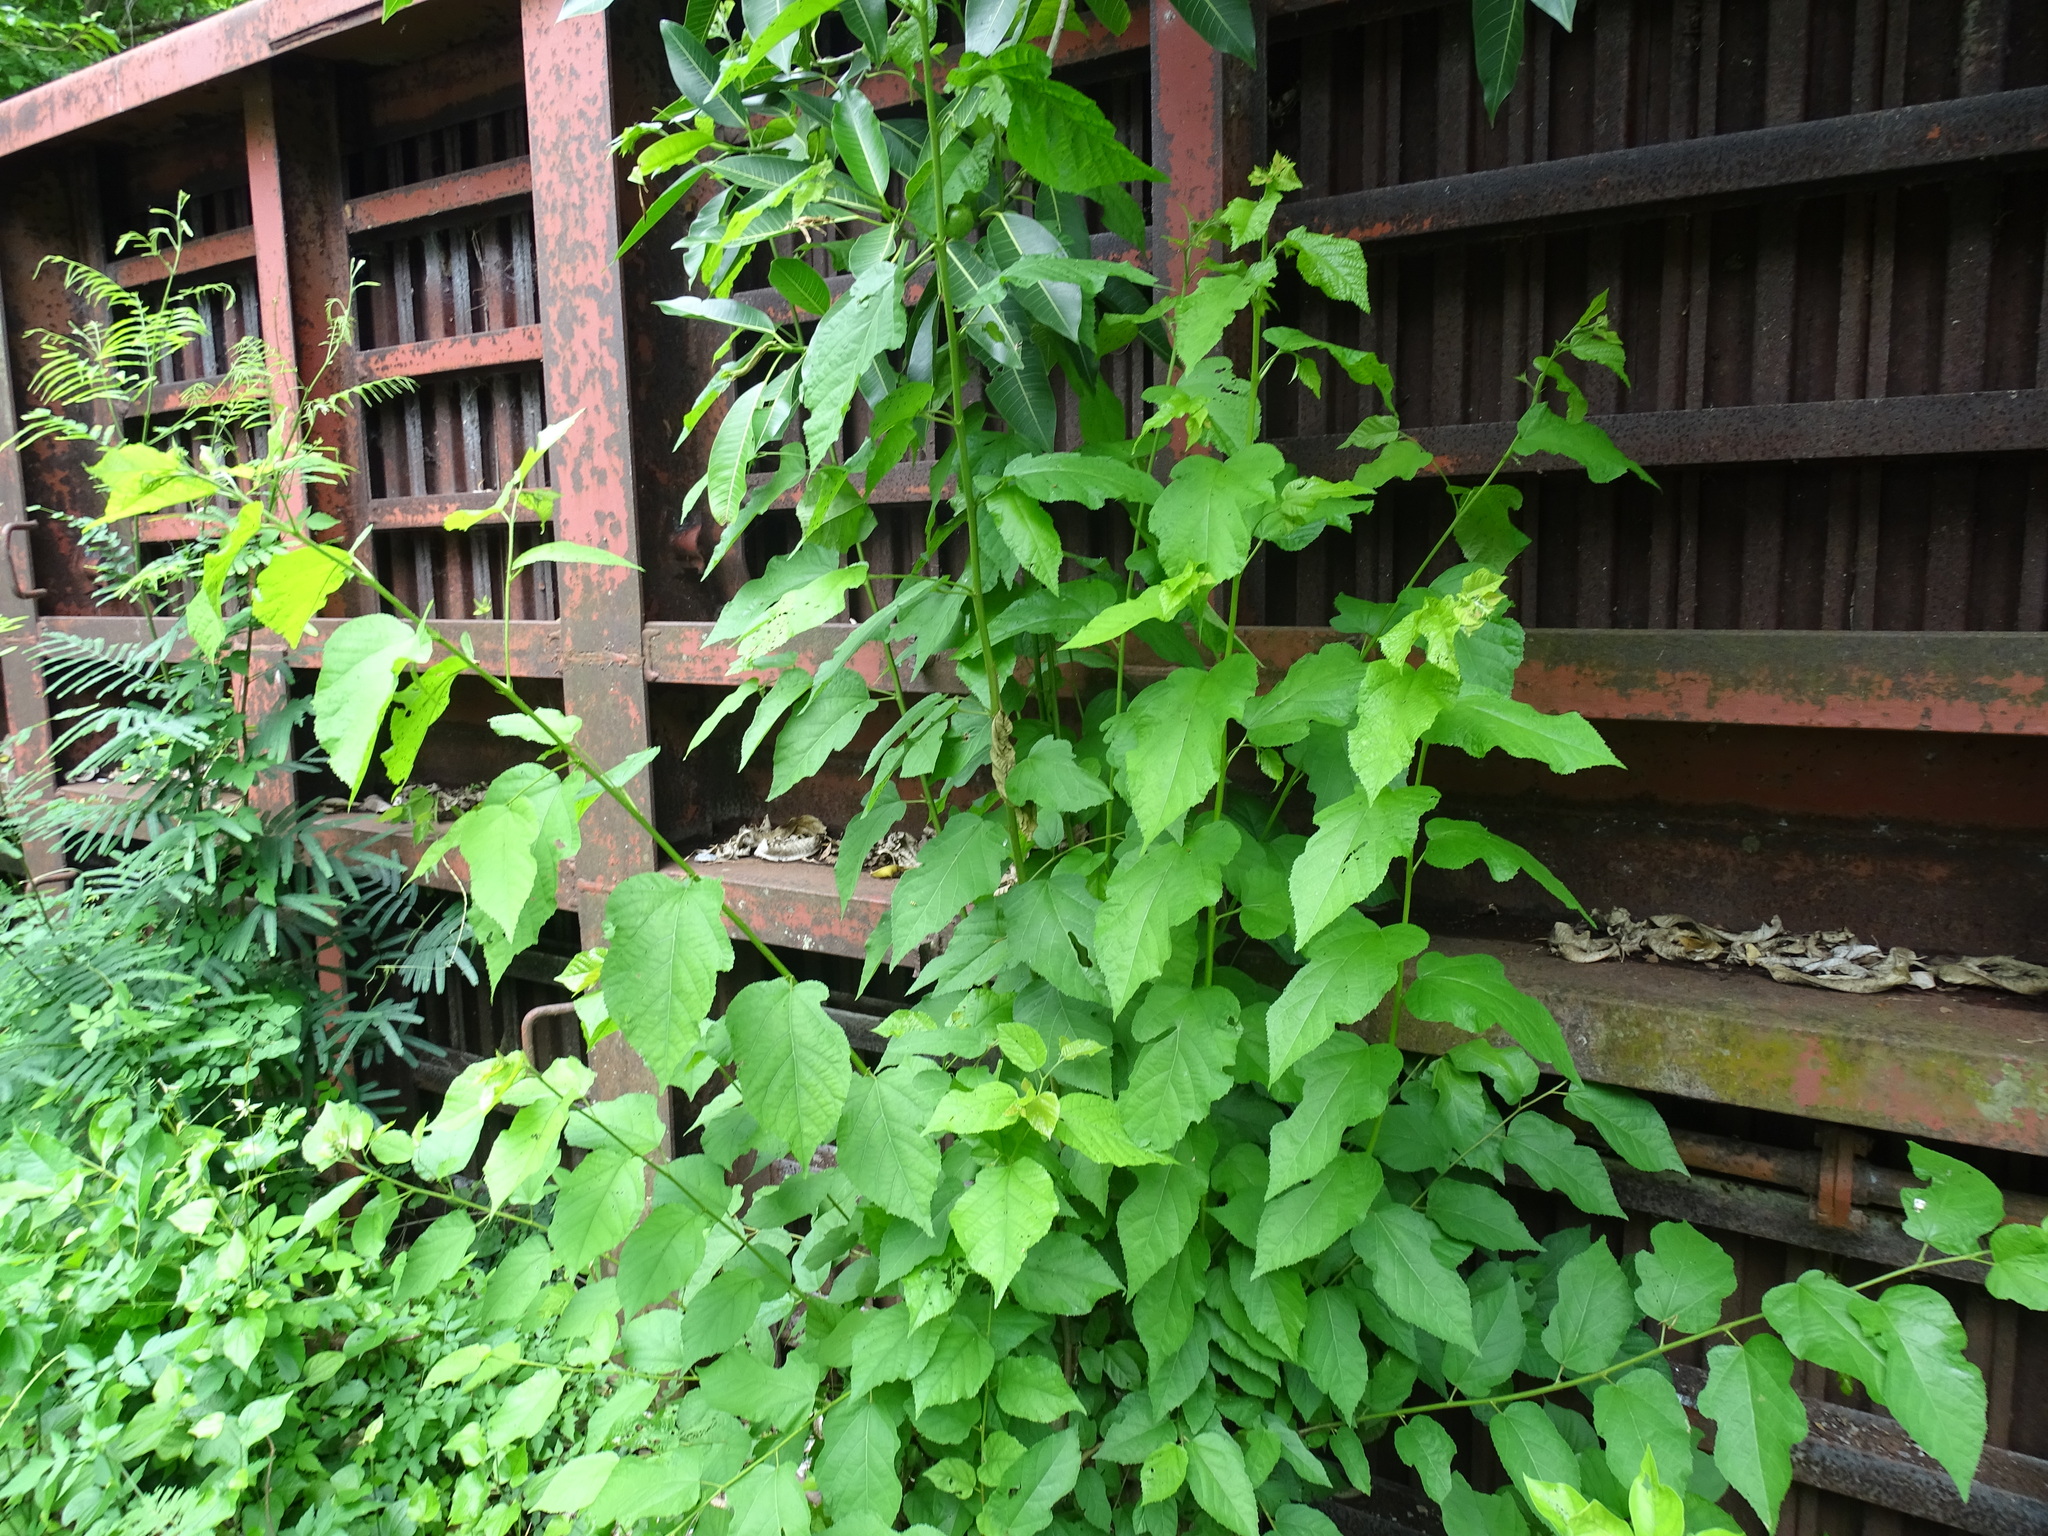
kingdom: Plantae
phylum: Tracheophyta
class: Magnoliopsida
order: Malvales
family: Malvaceae
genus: Guazuma
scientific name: Guazuma ulmifolia
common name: Bastard-cedar
